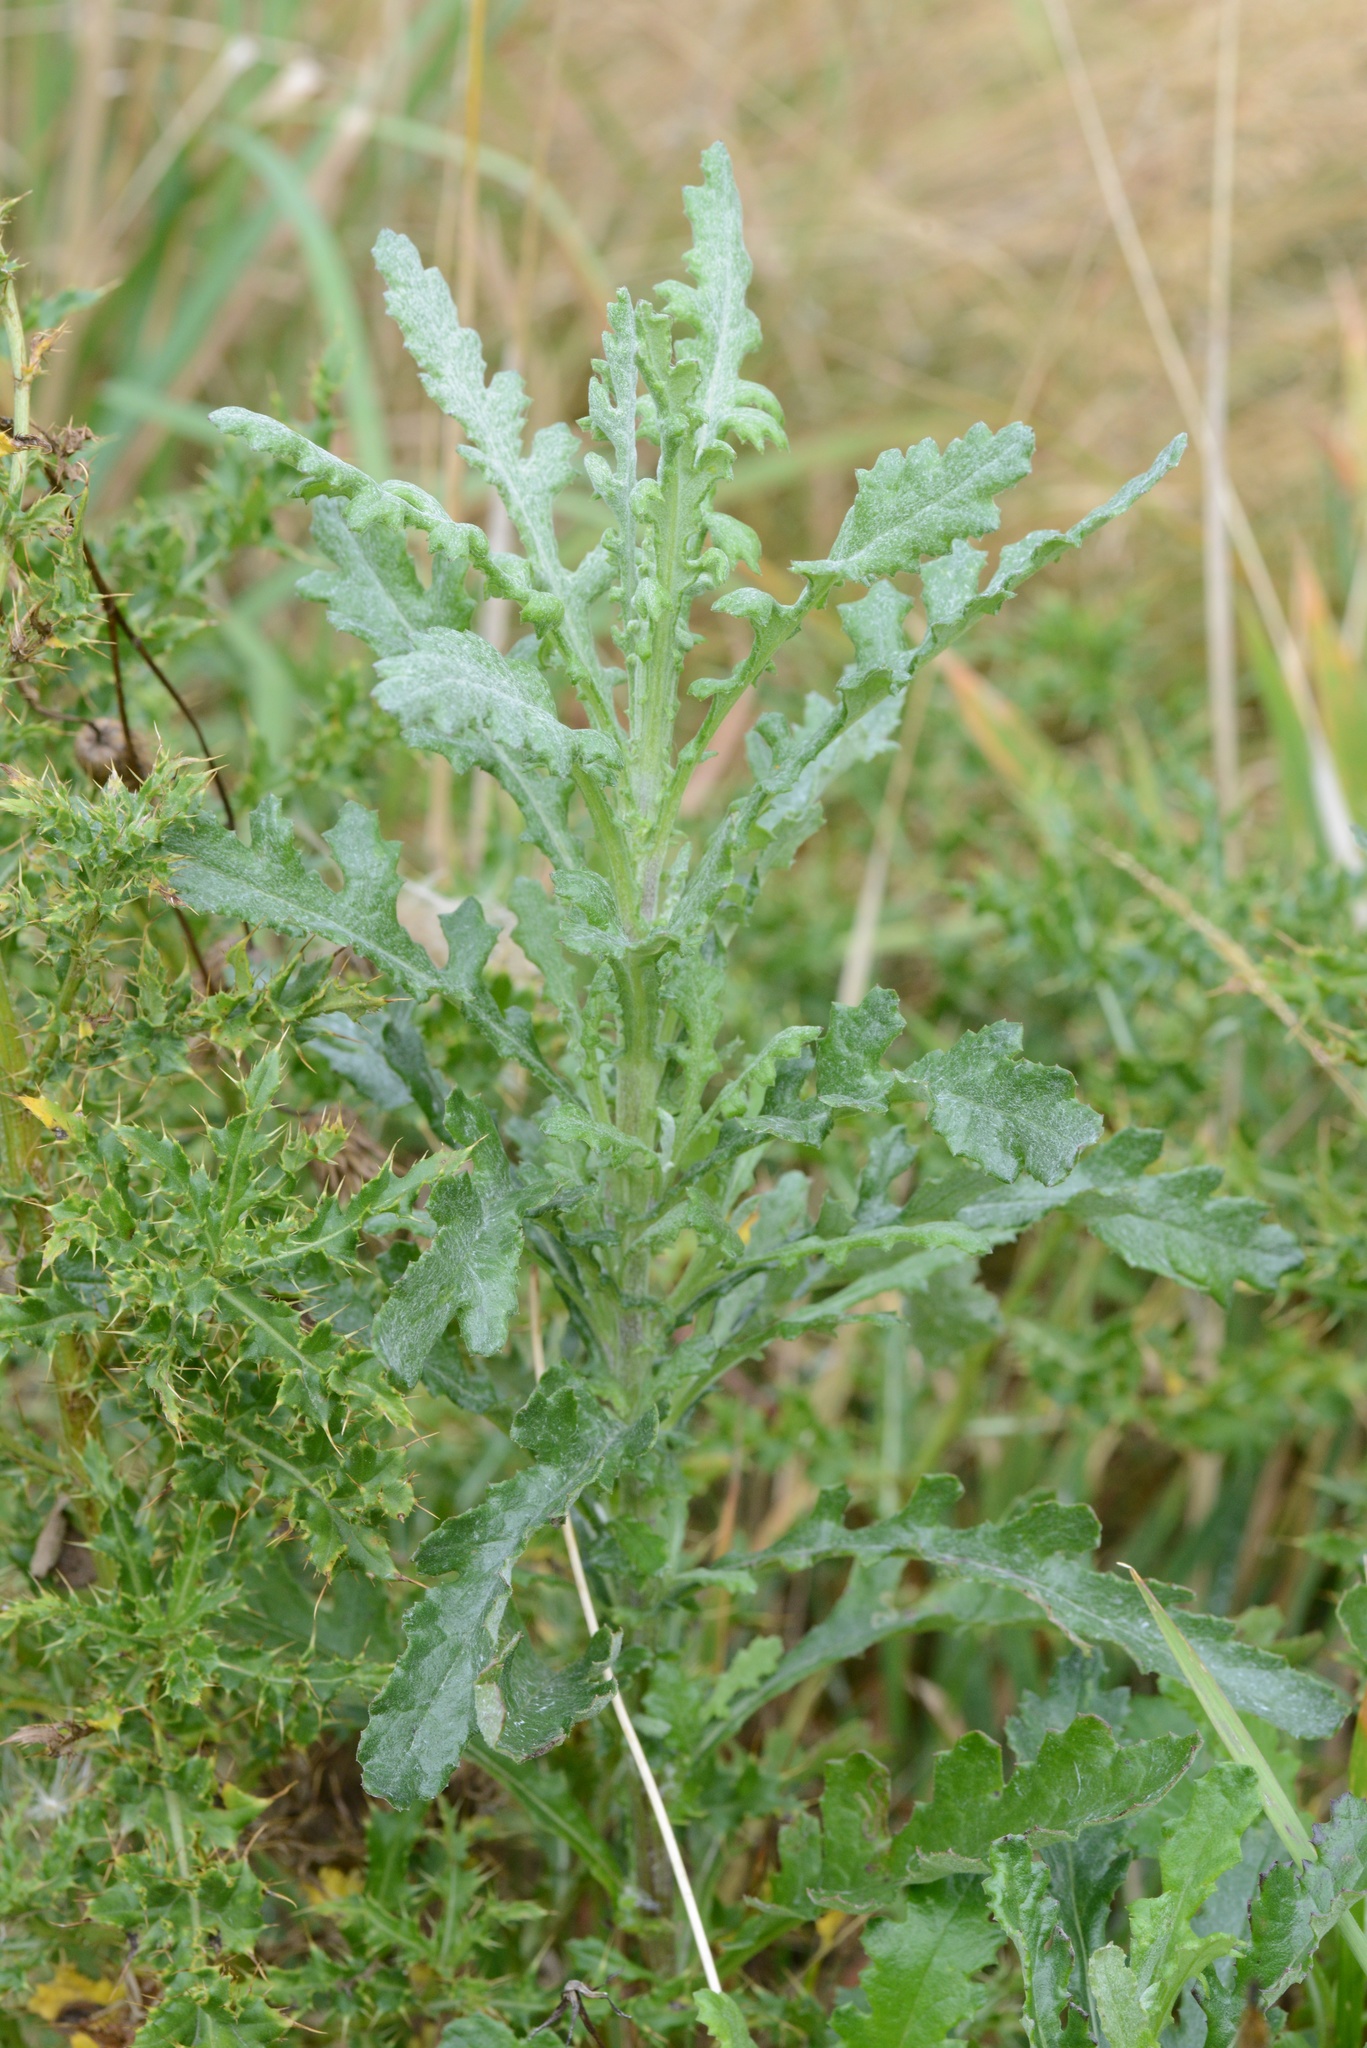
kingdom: Plantae
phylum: Tracheophyta
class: Magnoliopsida
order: Asterales
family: Asteraceae
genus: Senecio
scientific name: Senecio glomeratus
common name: Cutleaf burnweed
